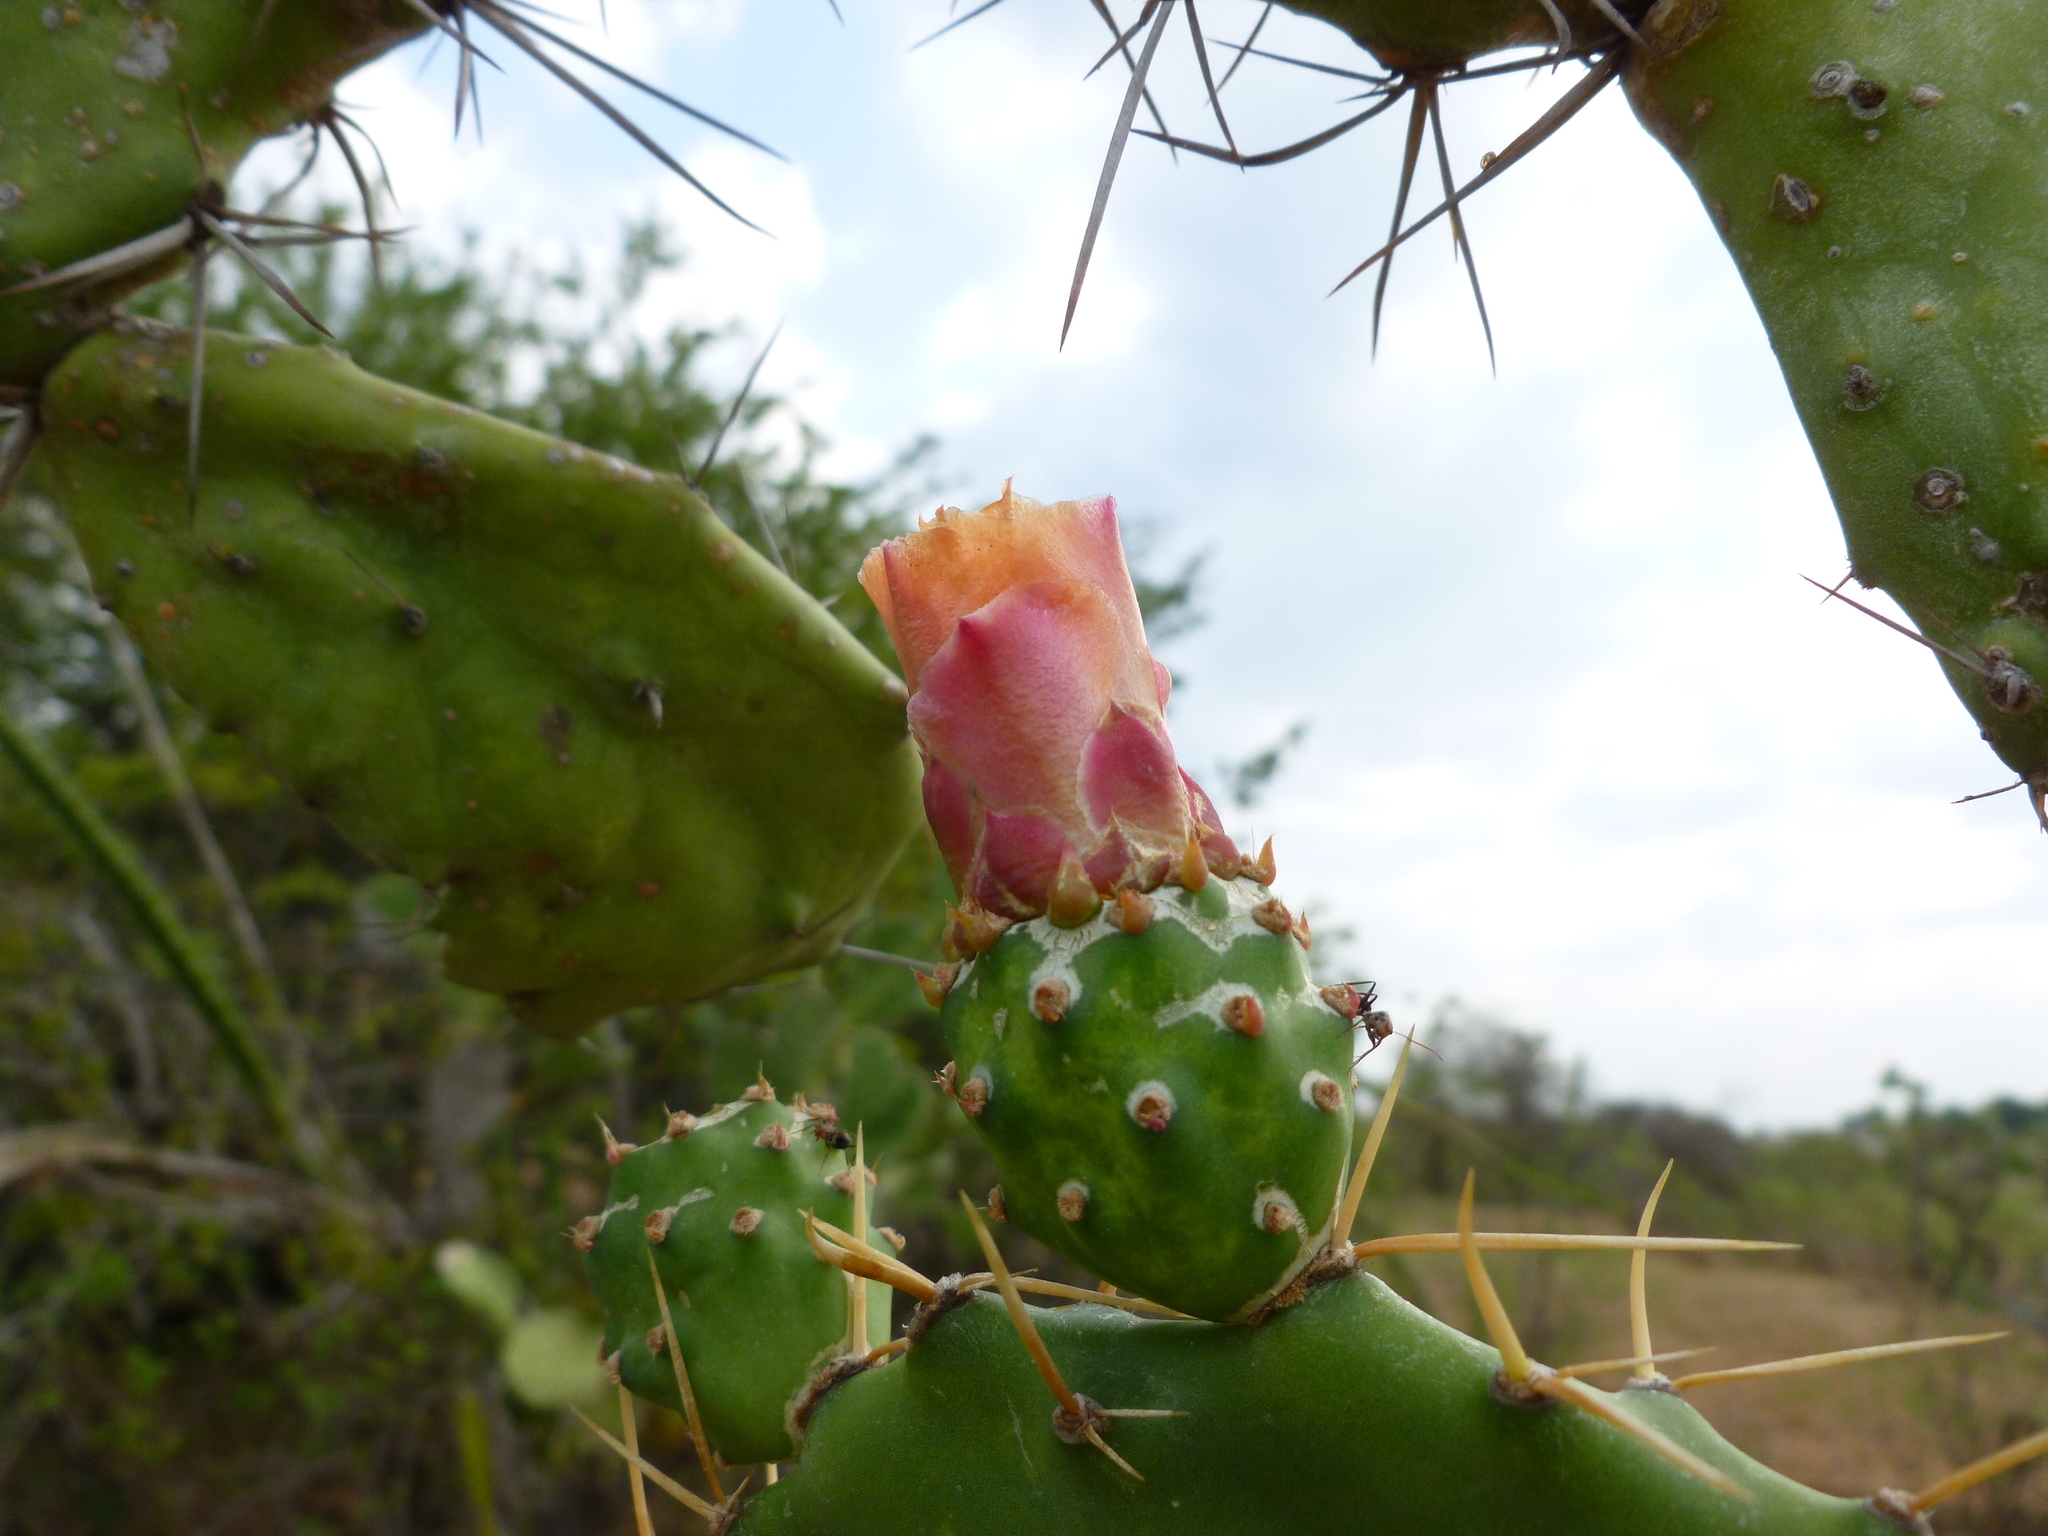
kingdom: Plantae
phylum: Tracheophyta
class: Magnoliopsida
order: Caryophyllales
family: Cactaceae
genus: Opuntia
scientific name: Opuntia elatior
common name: Tuna
